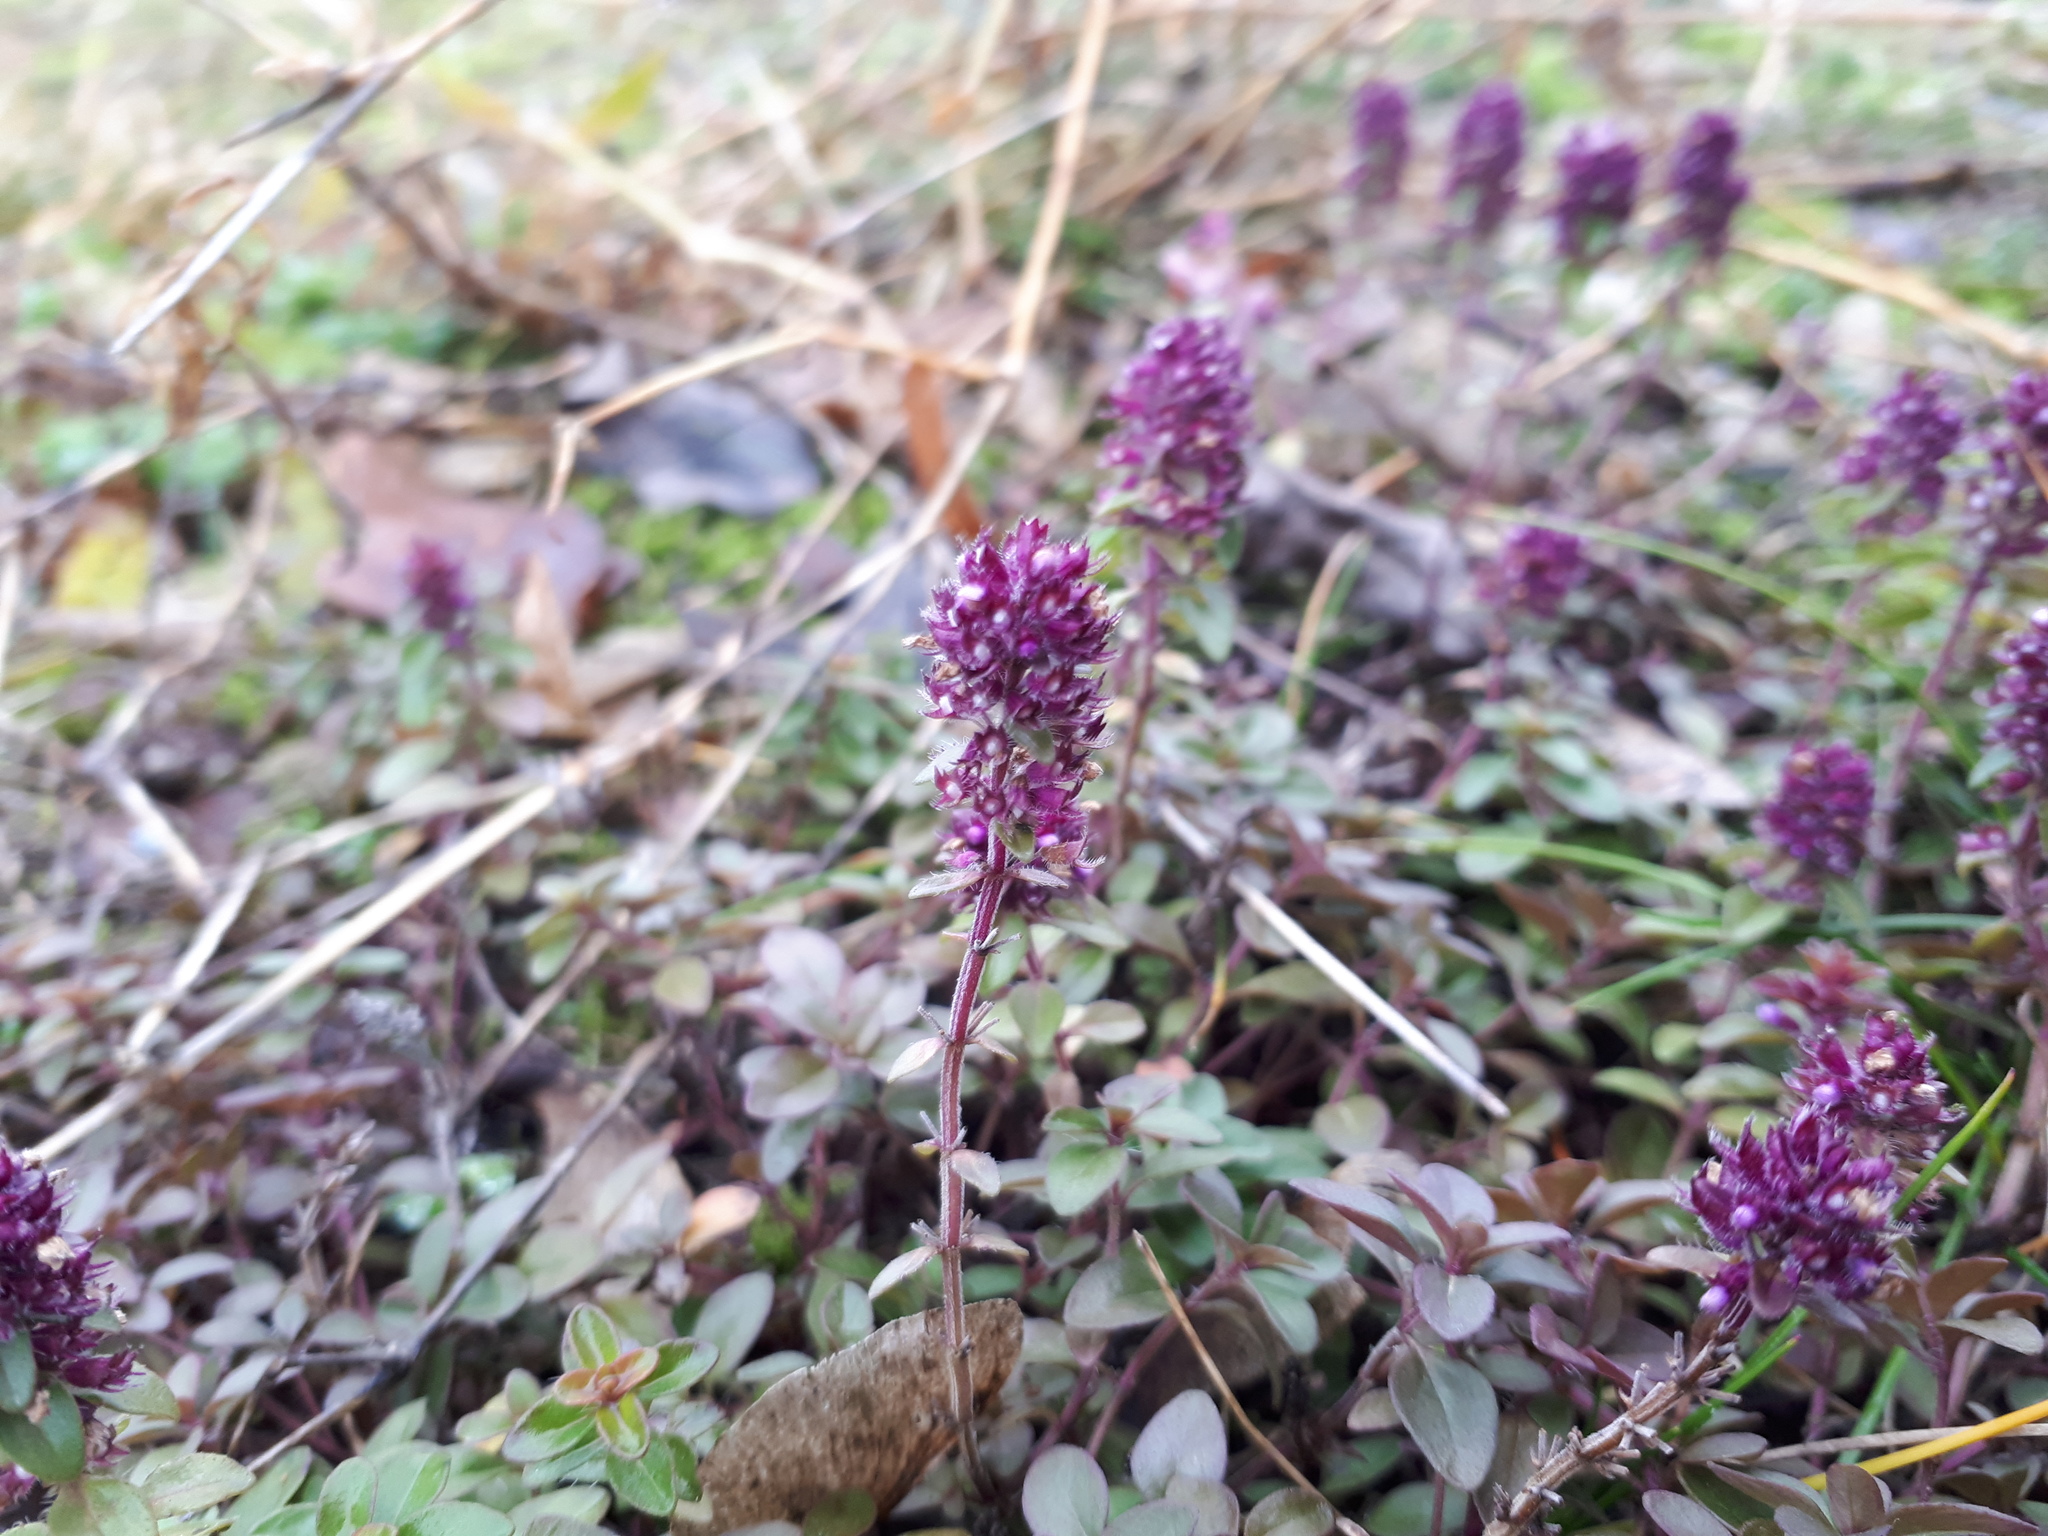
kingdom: Plantae
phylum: Tracheophyta
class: Magnoliopsida
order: Lamiales
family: Lamiaceae
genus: Thymus
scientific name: Thymus pulegioides
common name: Large thyme
